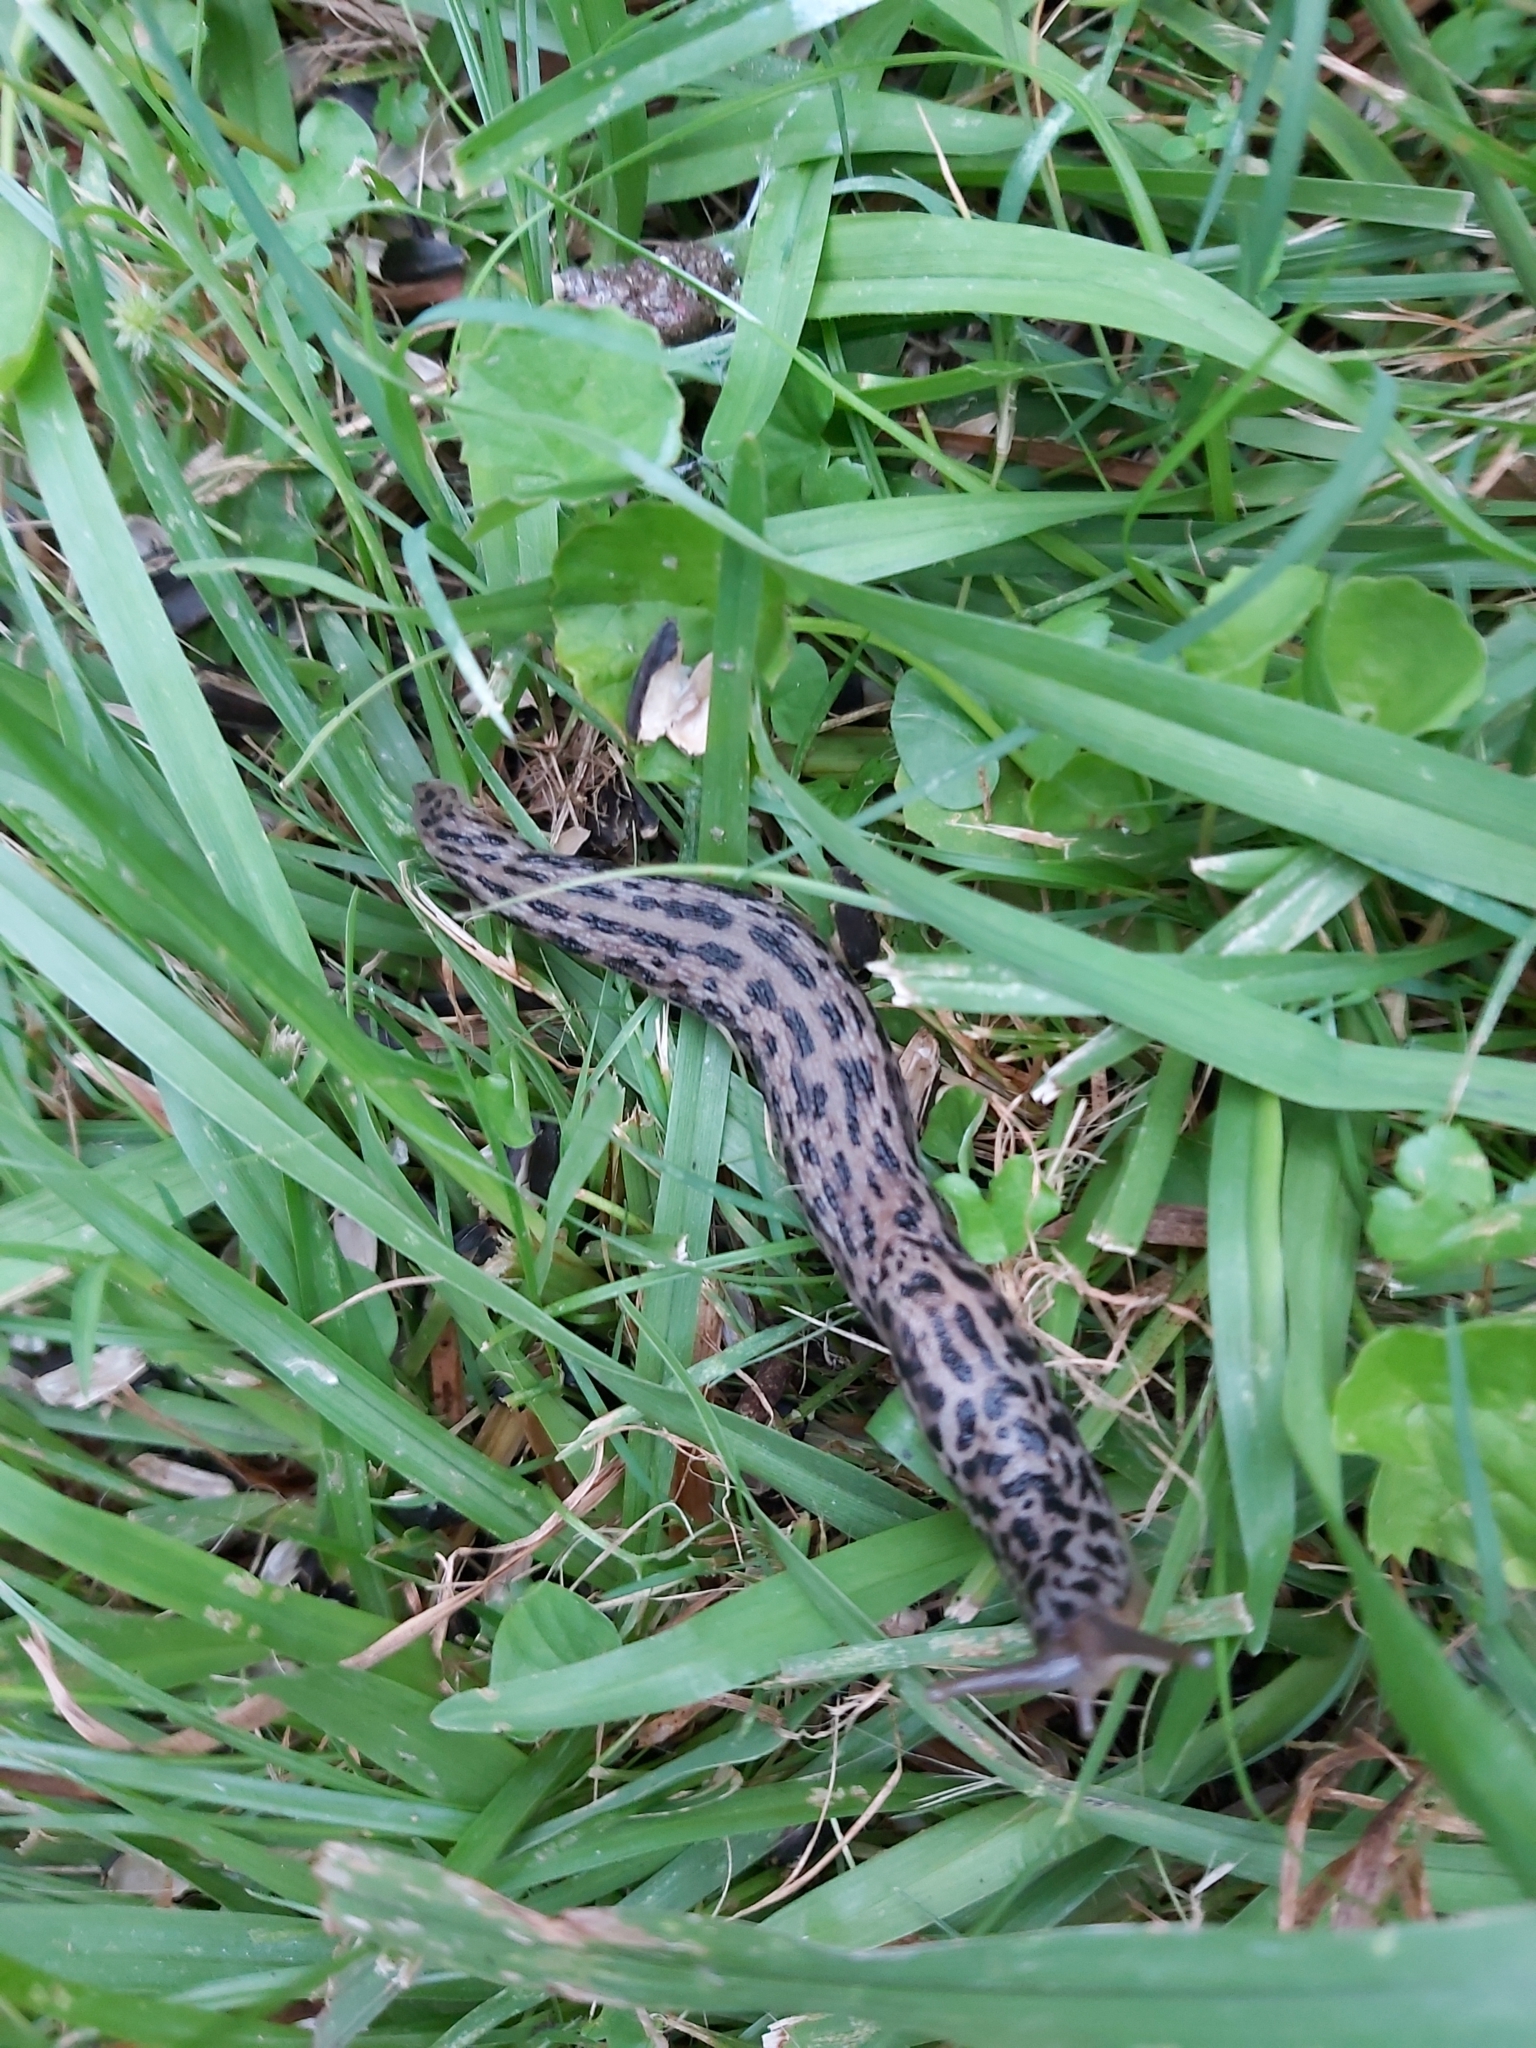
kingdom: Animalia
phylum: Mollusca
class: Gastropoda
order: Stylommatophora
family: Limacidae
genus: Limax
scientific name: Limax maximus
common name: Great grey slug
